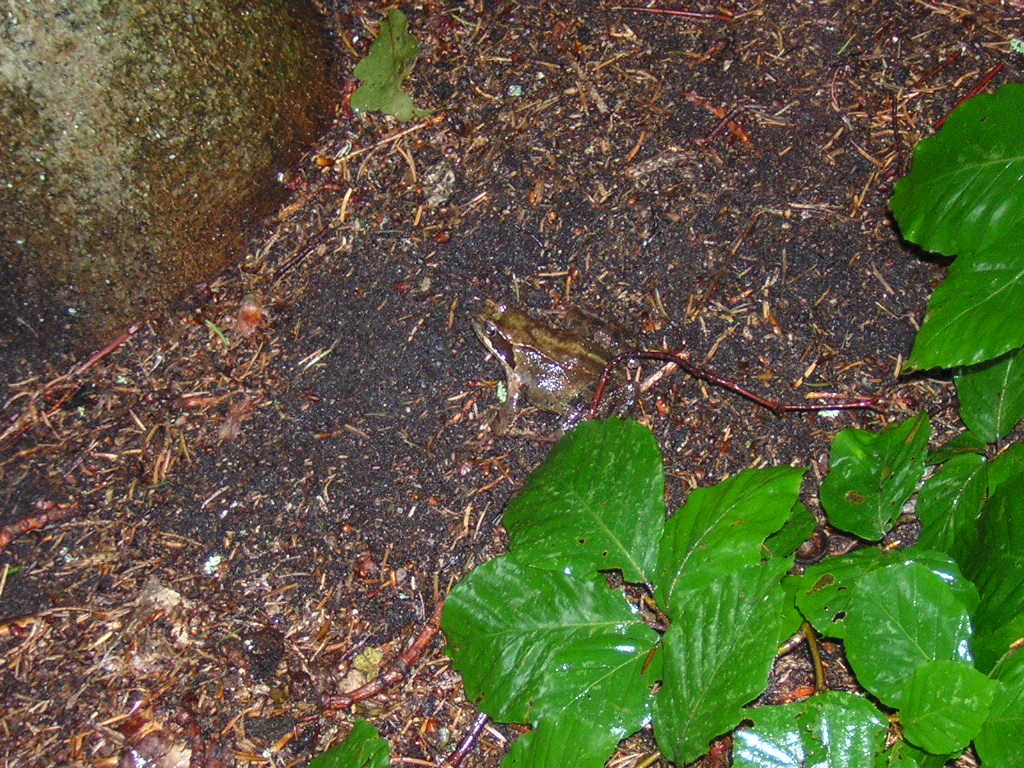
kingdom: Animalia
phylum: Chordata
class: Amphibia
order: Anura
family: Ranidae
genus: Rana
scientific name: Rana temporaria
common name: Common frog
